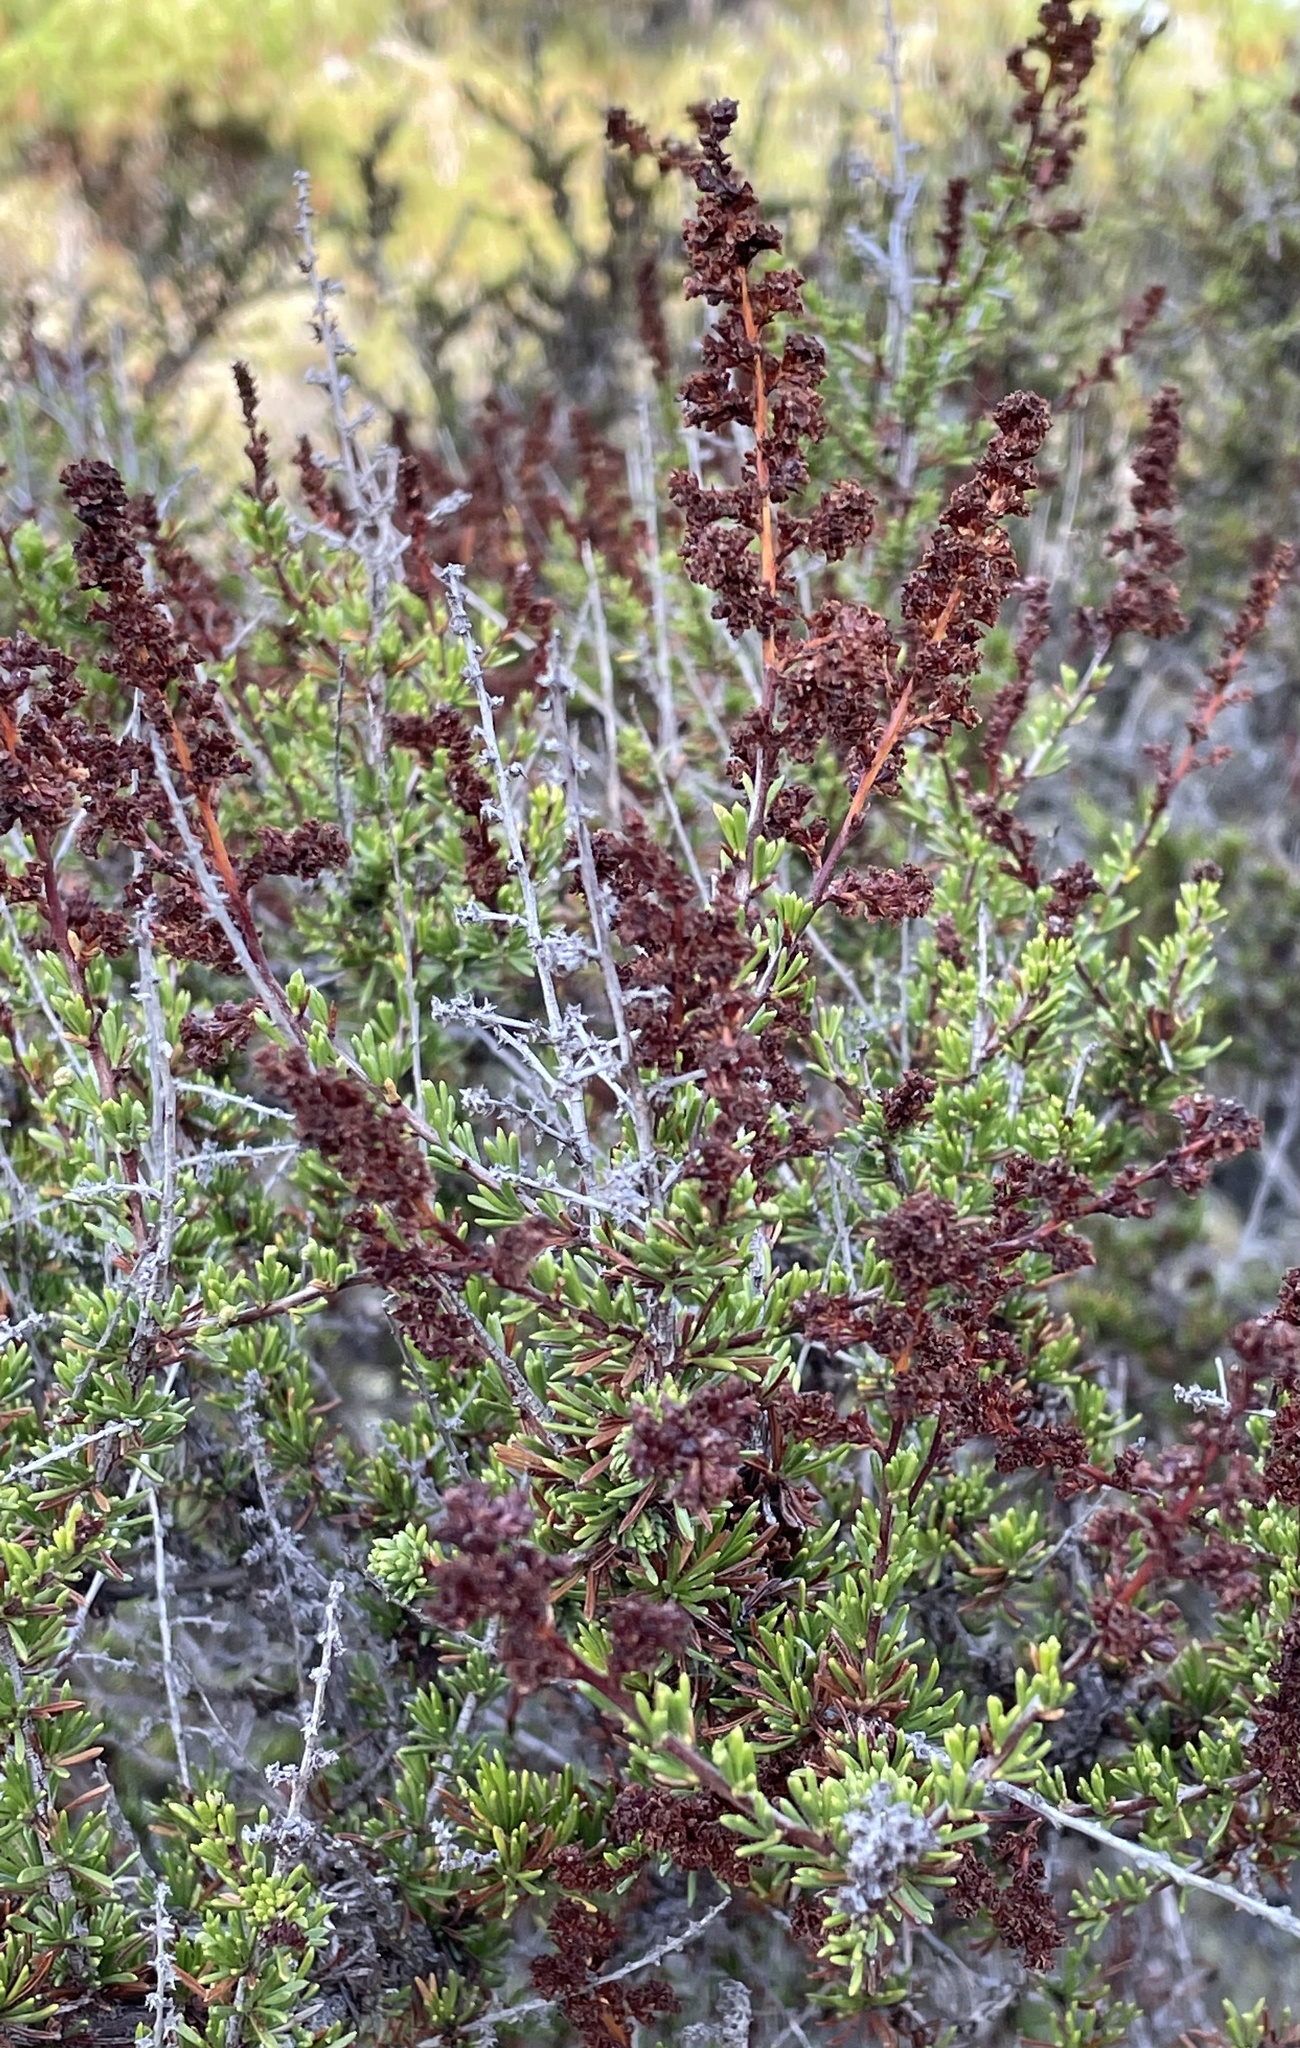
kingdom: Plantae
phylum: Tracheophyta
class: Magnoliopsida
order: Rosales
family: Rosaceae
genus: Adenostoma
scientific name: Adenostoma fasciculatum
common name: Chamise
